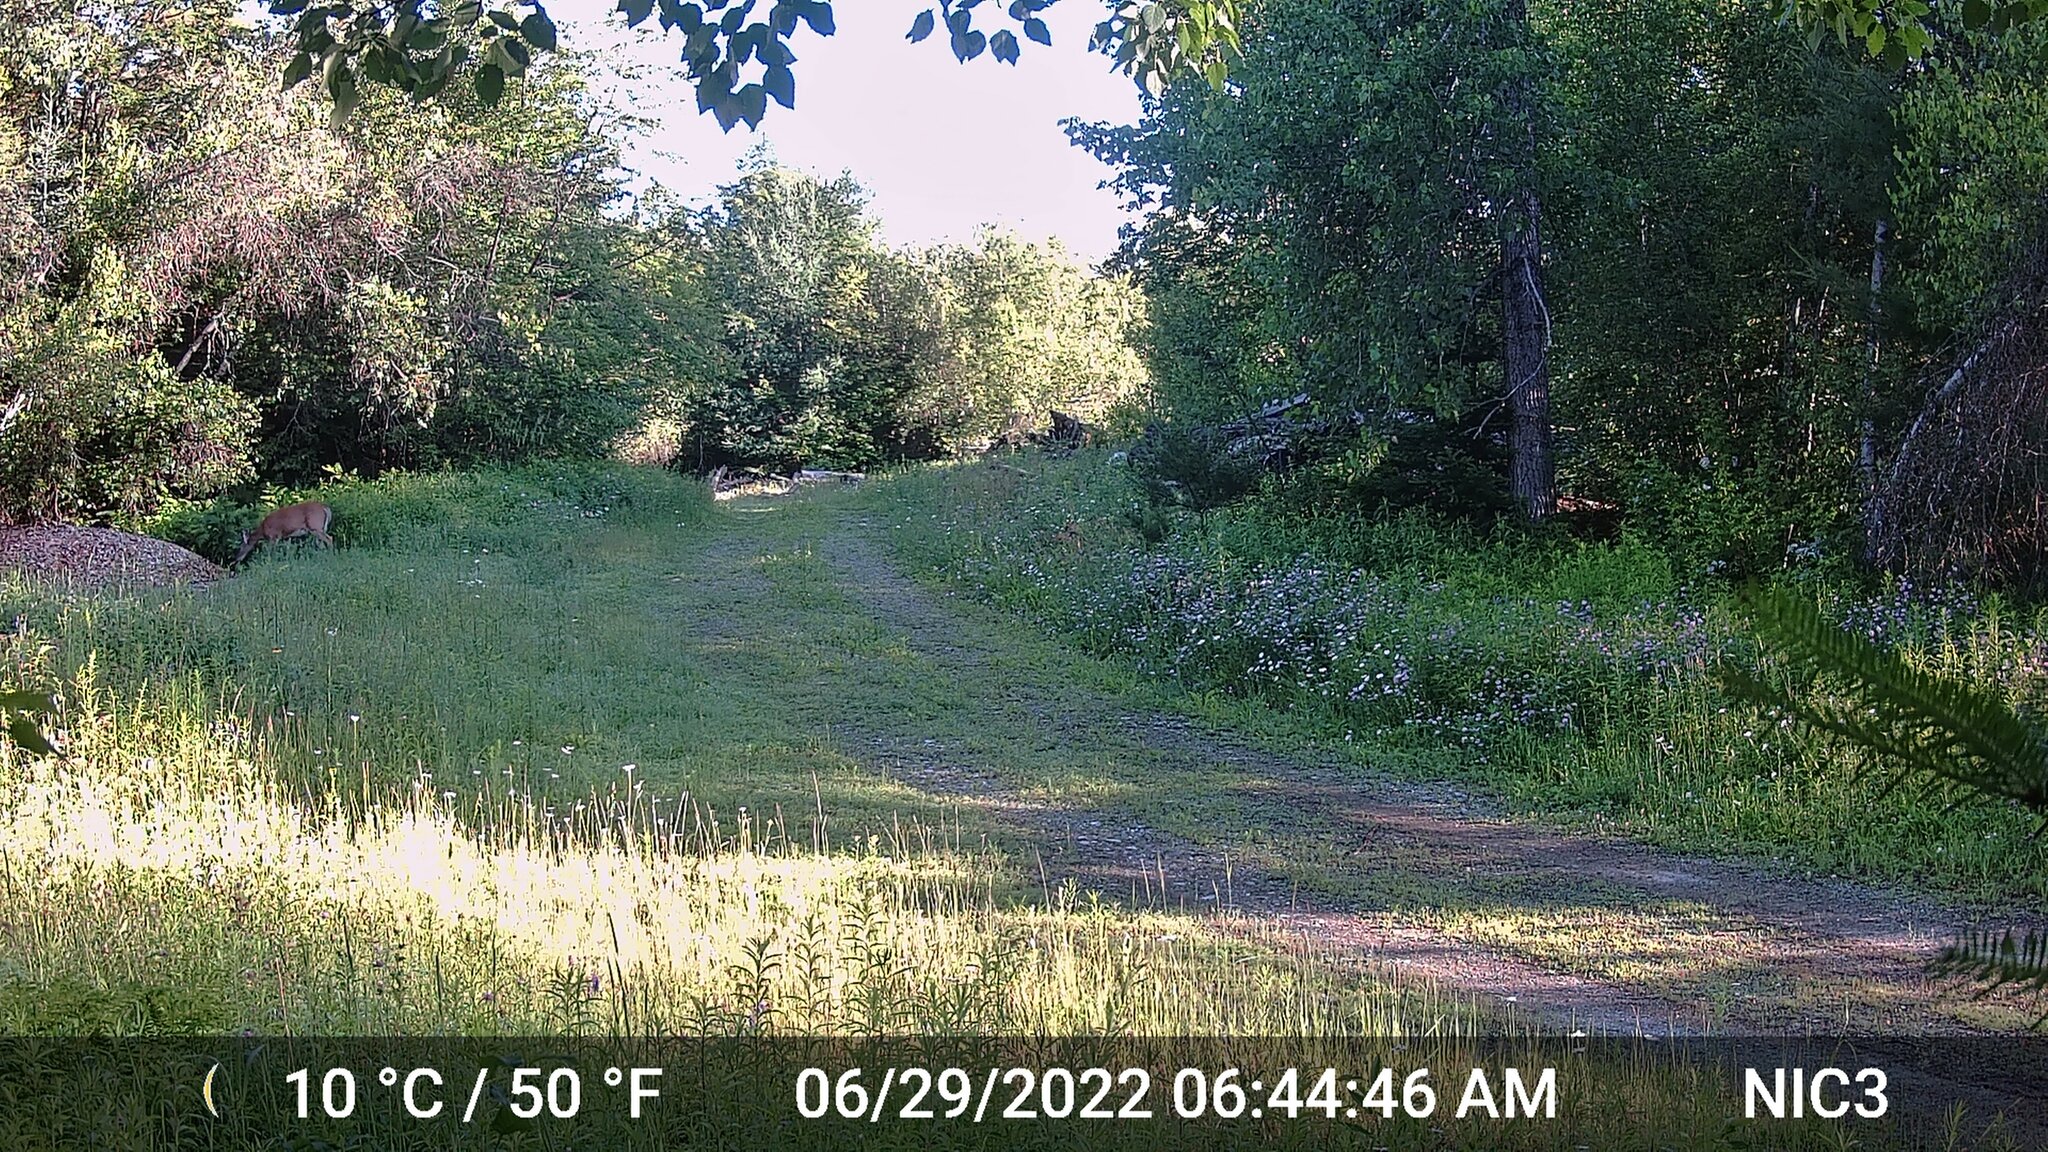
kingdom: Animalia
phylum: Chordata
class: Mammalia
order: Artiodactyla
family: Cervidae
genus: Odocoileus
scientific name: Odocoileus virginianus
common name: White-tailed deer
